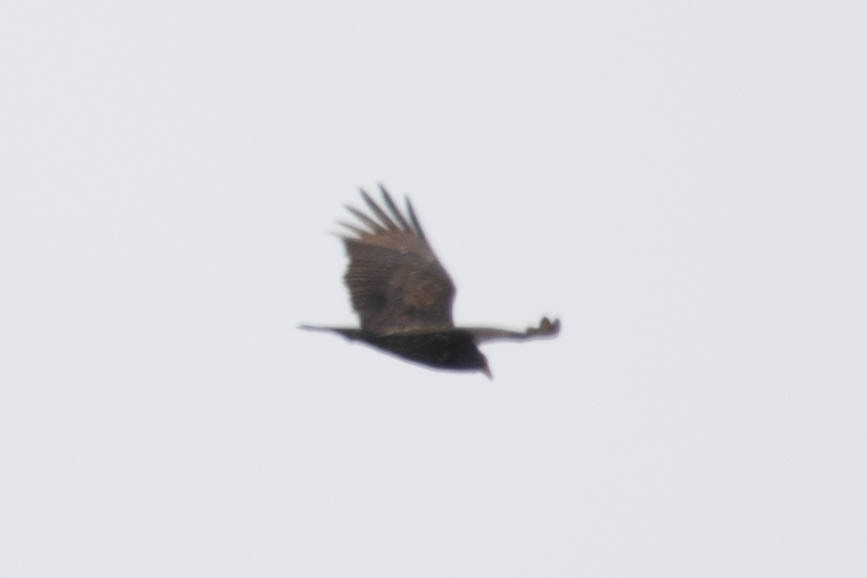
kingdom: Animalia
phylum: Chordata
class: Aves
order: Accipitriformes
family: Cathartidae
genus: Cathartes
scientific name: Cathartes aura
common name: Turkey vulture
